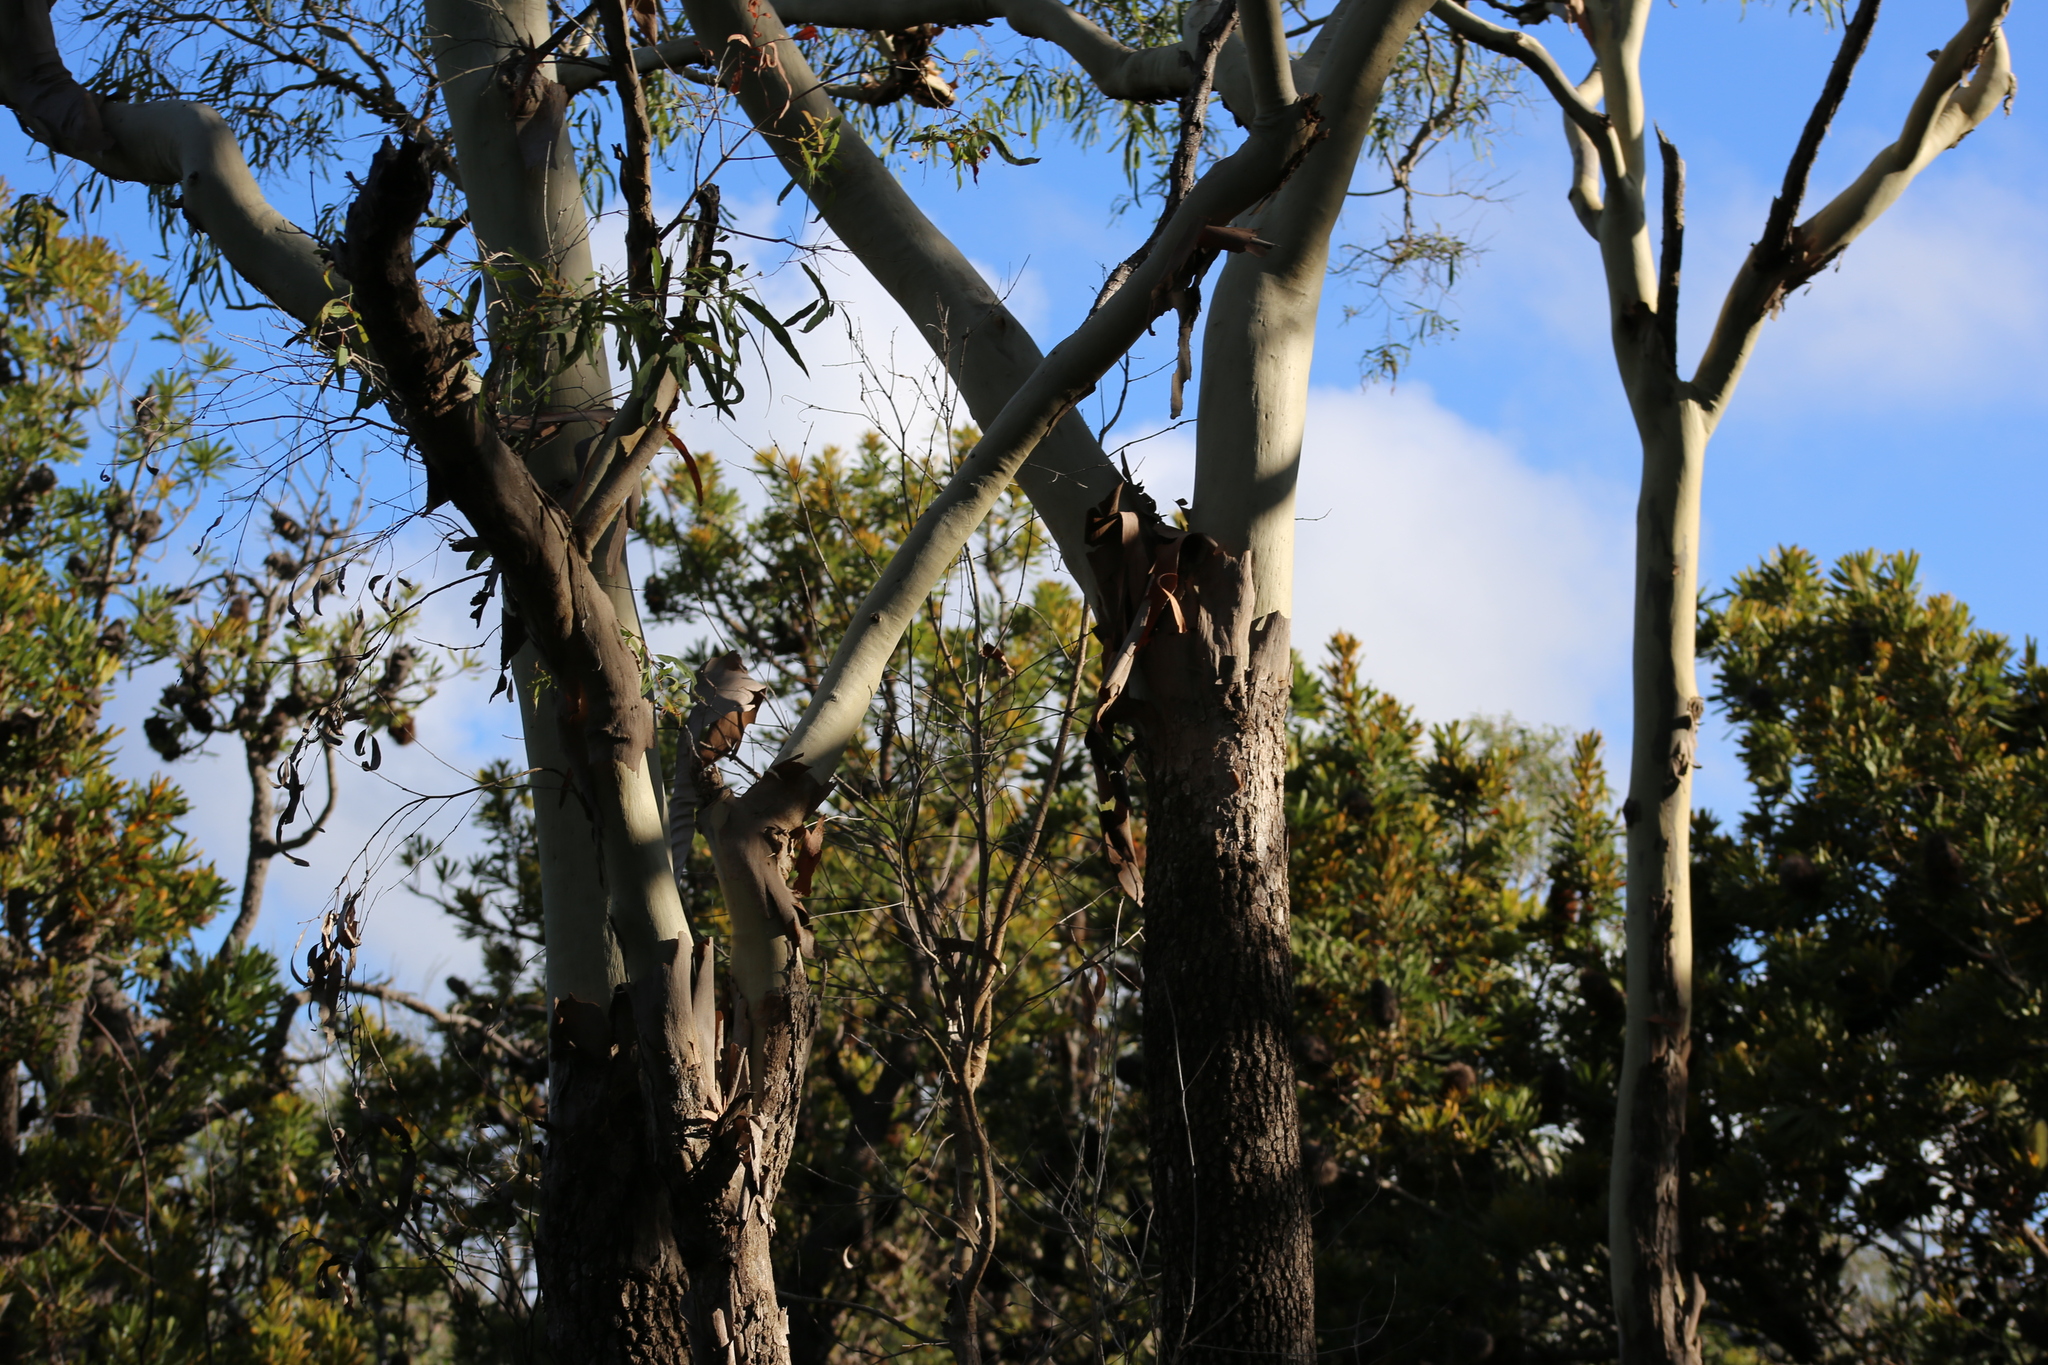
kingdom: Plantae
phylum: Tracheophyta
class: Magnoliopsida
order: Myrtales
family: Myrtaceae
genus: Corymbia
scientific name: Corymbia tessellaris
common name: Carbeen
